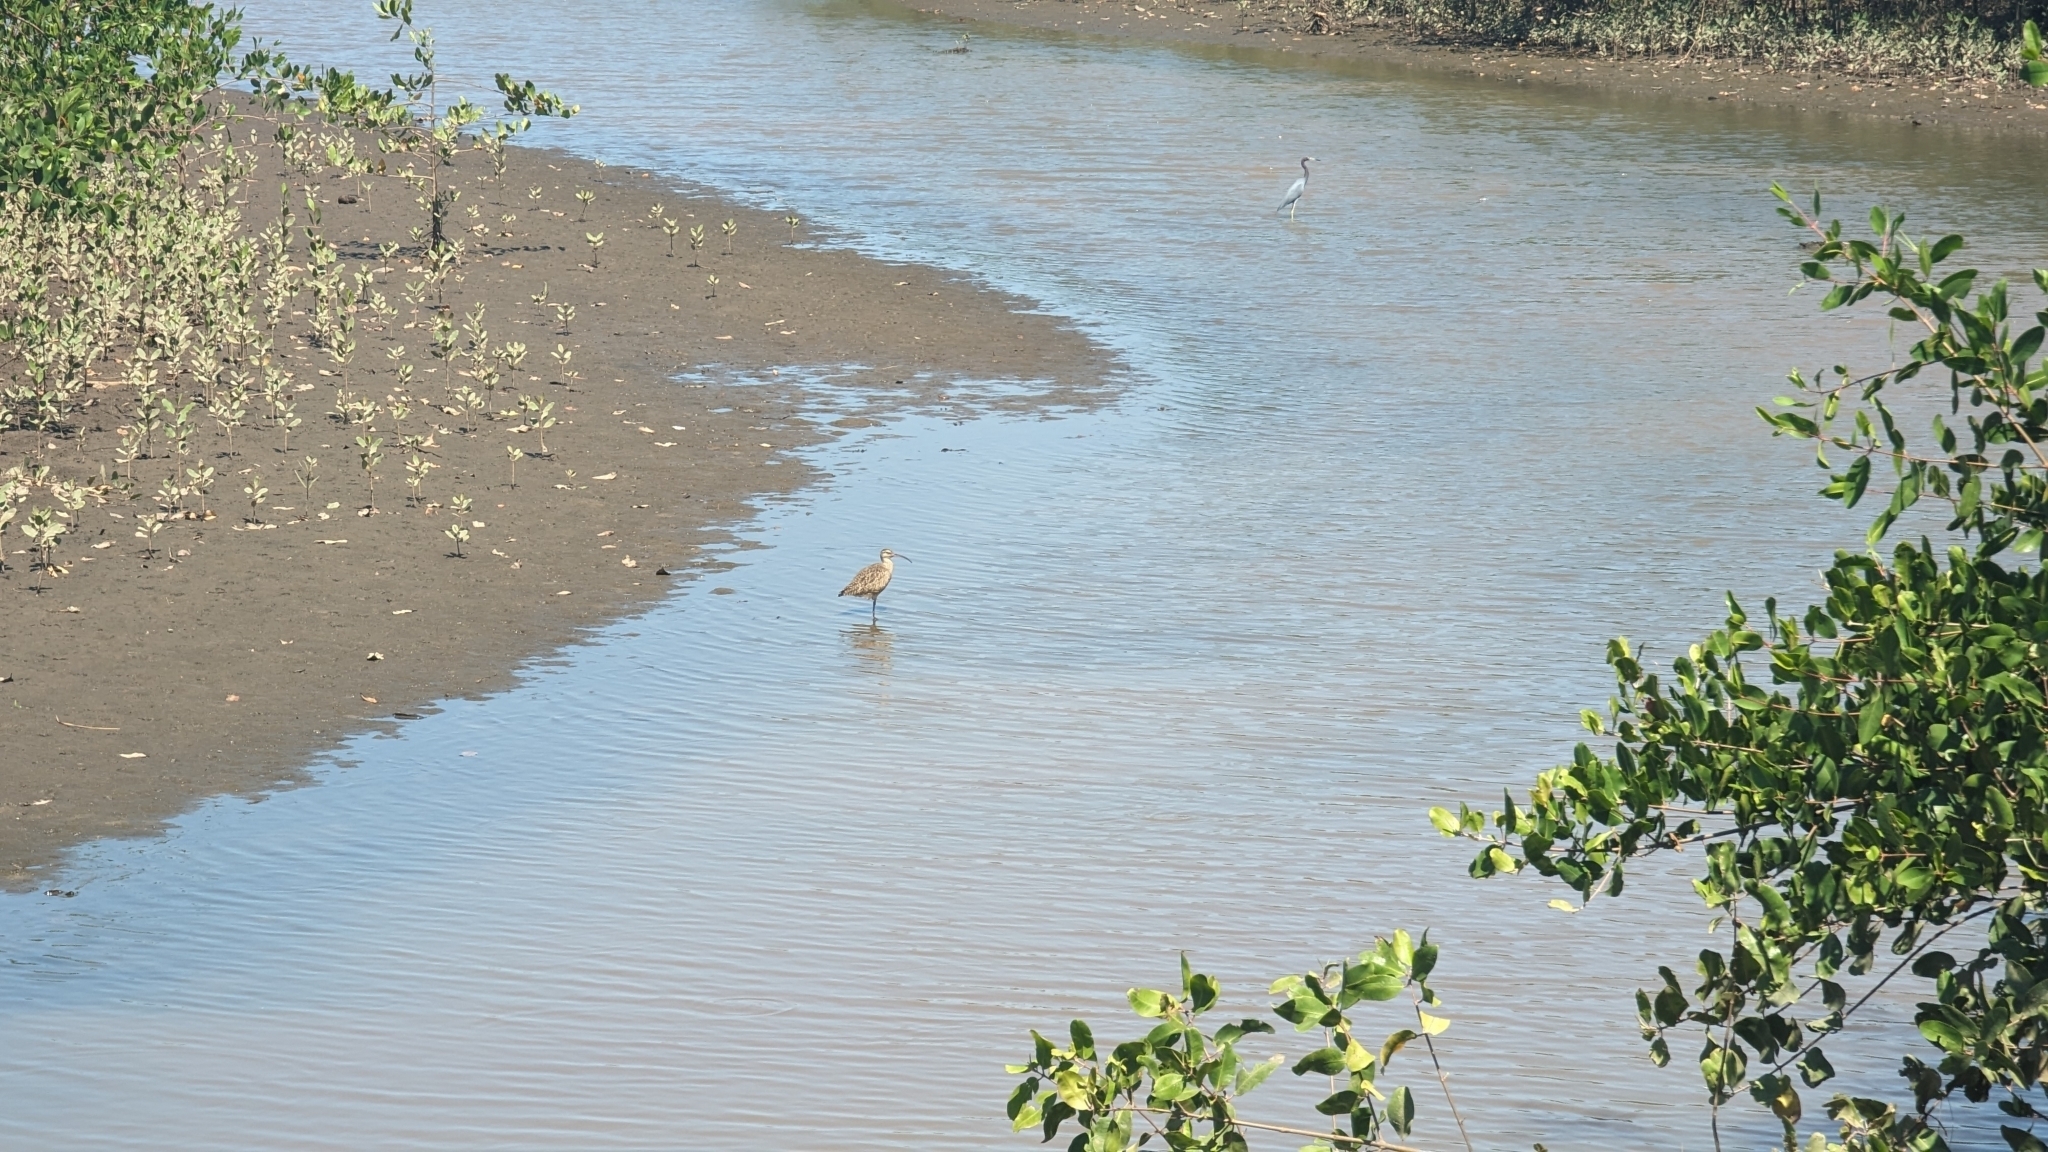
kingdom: Animalia
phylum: Chordata
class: Aves
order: Charadriiformes
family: Scolopacidae
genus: Numenius
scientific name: Numenius phaeopus
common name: Whimbrel
